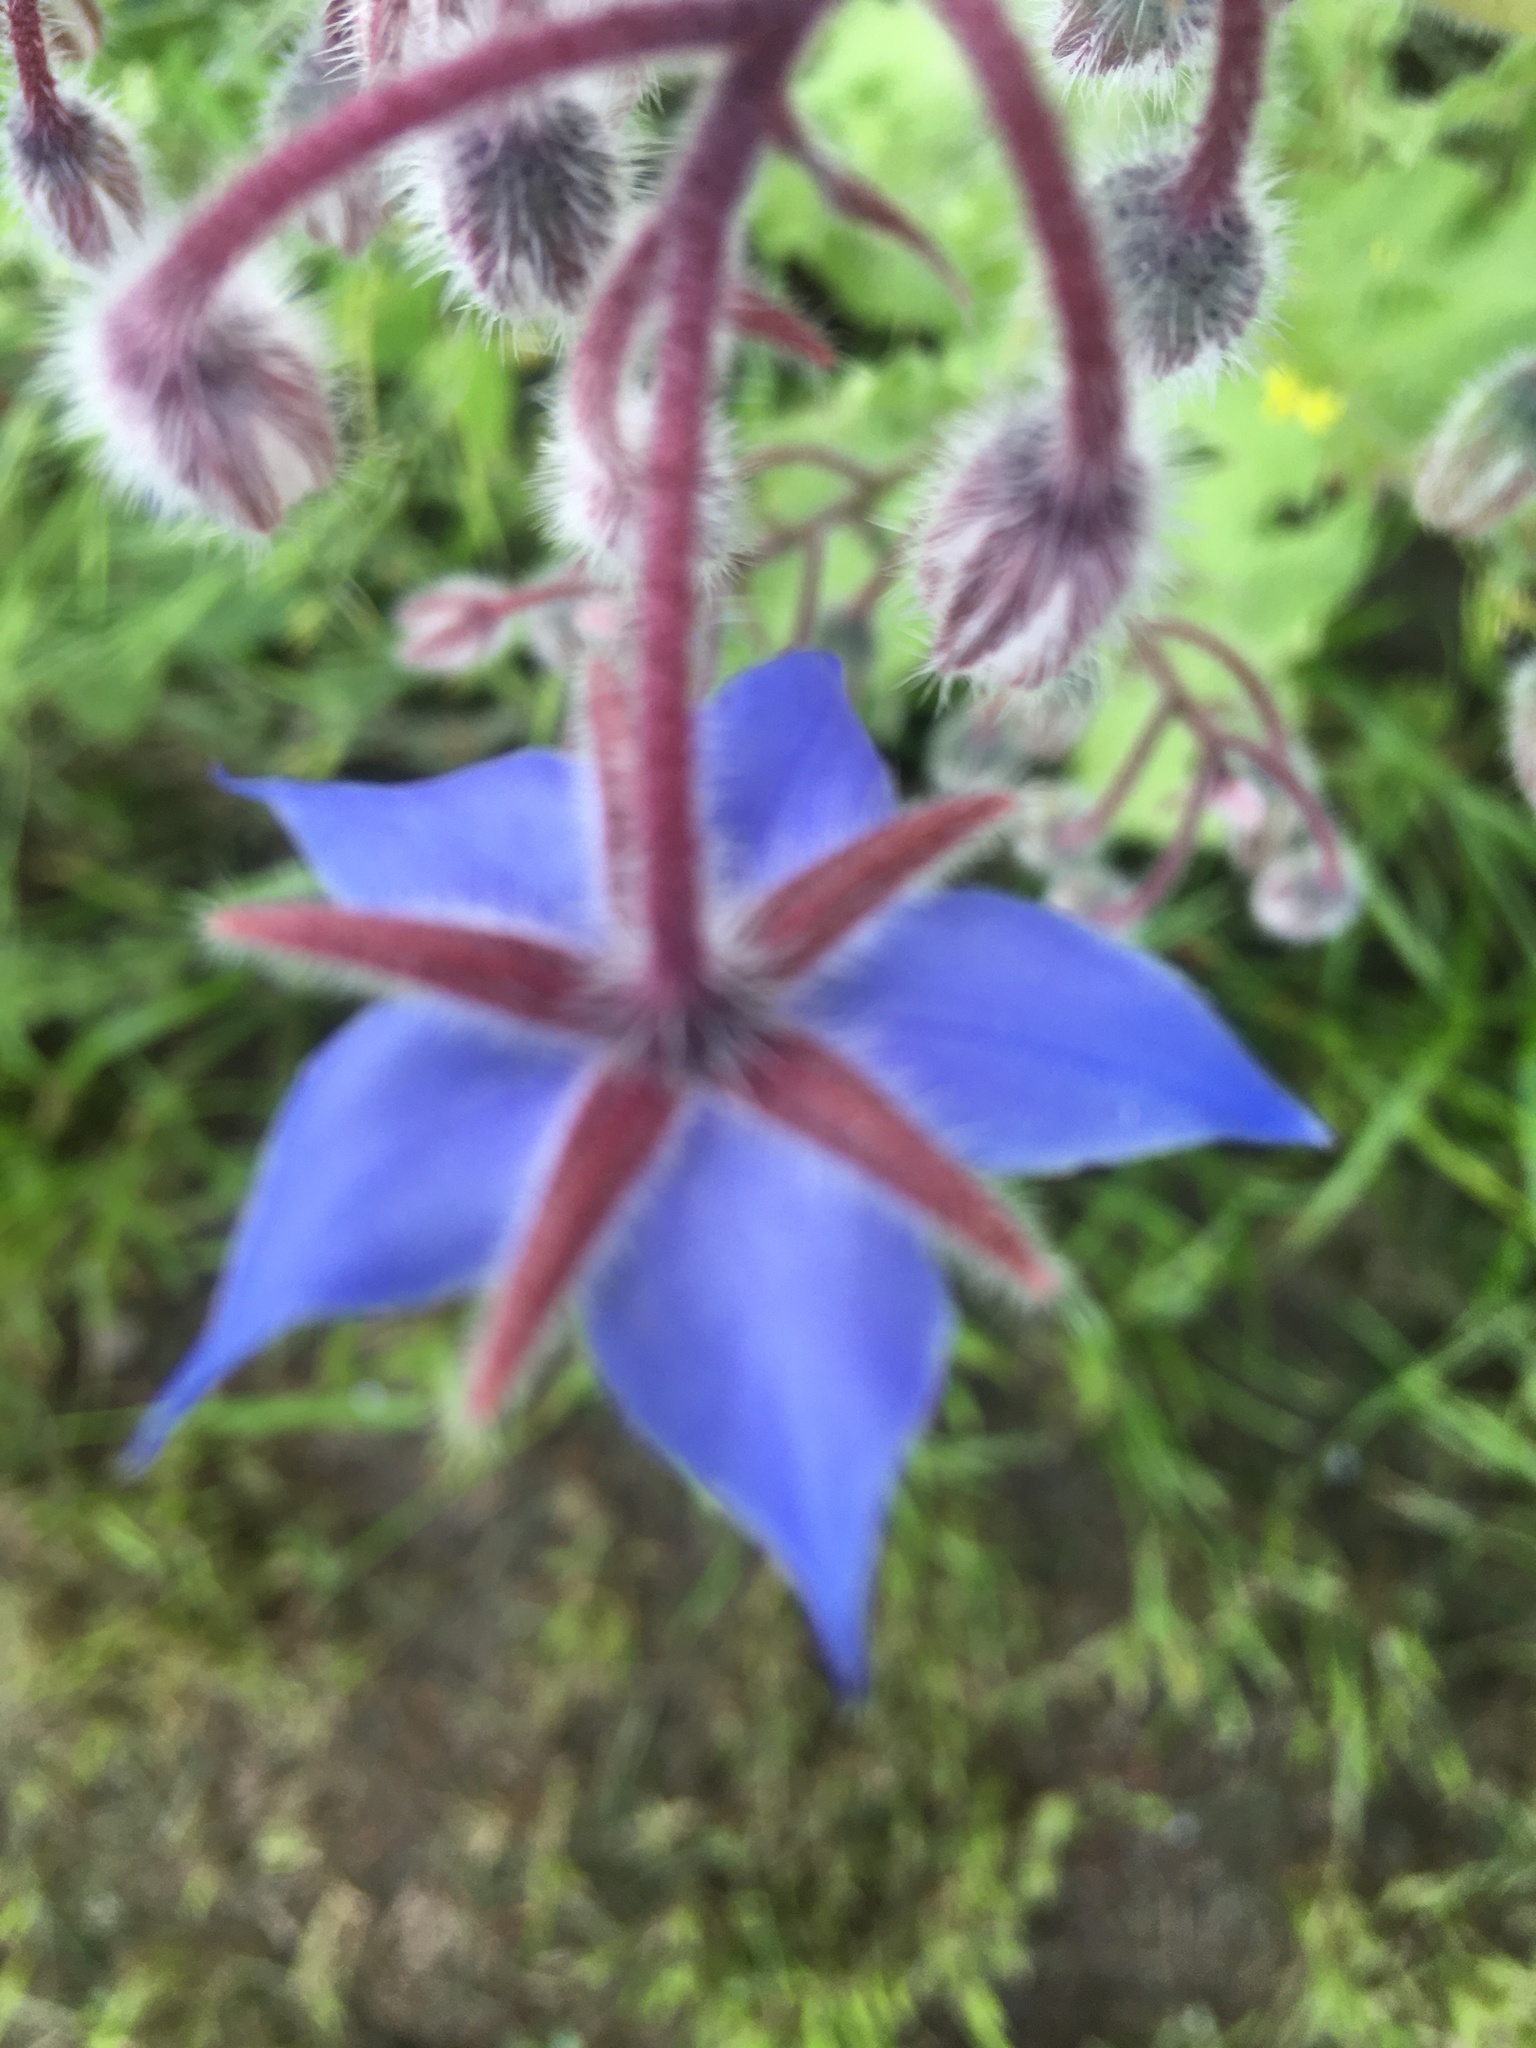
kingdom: Plantae
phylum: Tracheophyta
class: Magnoliopsida
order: Boraginales
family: Boraginaceae
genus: Borago
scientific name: Borago officinalis
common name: Borage
